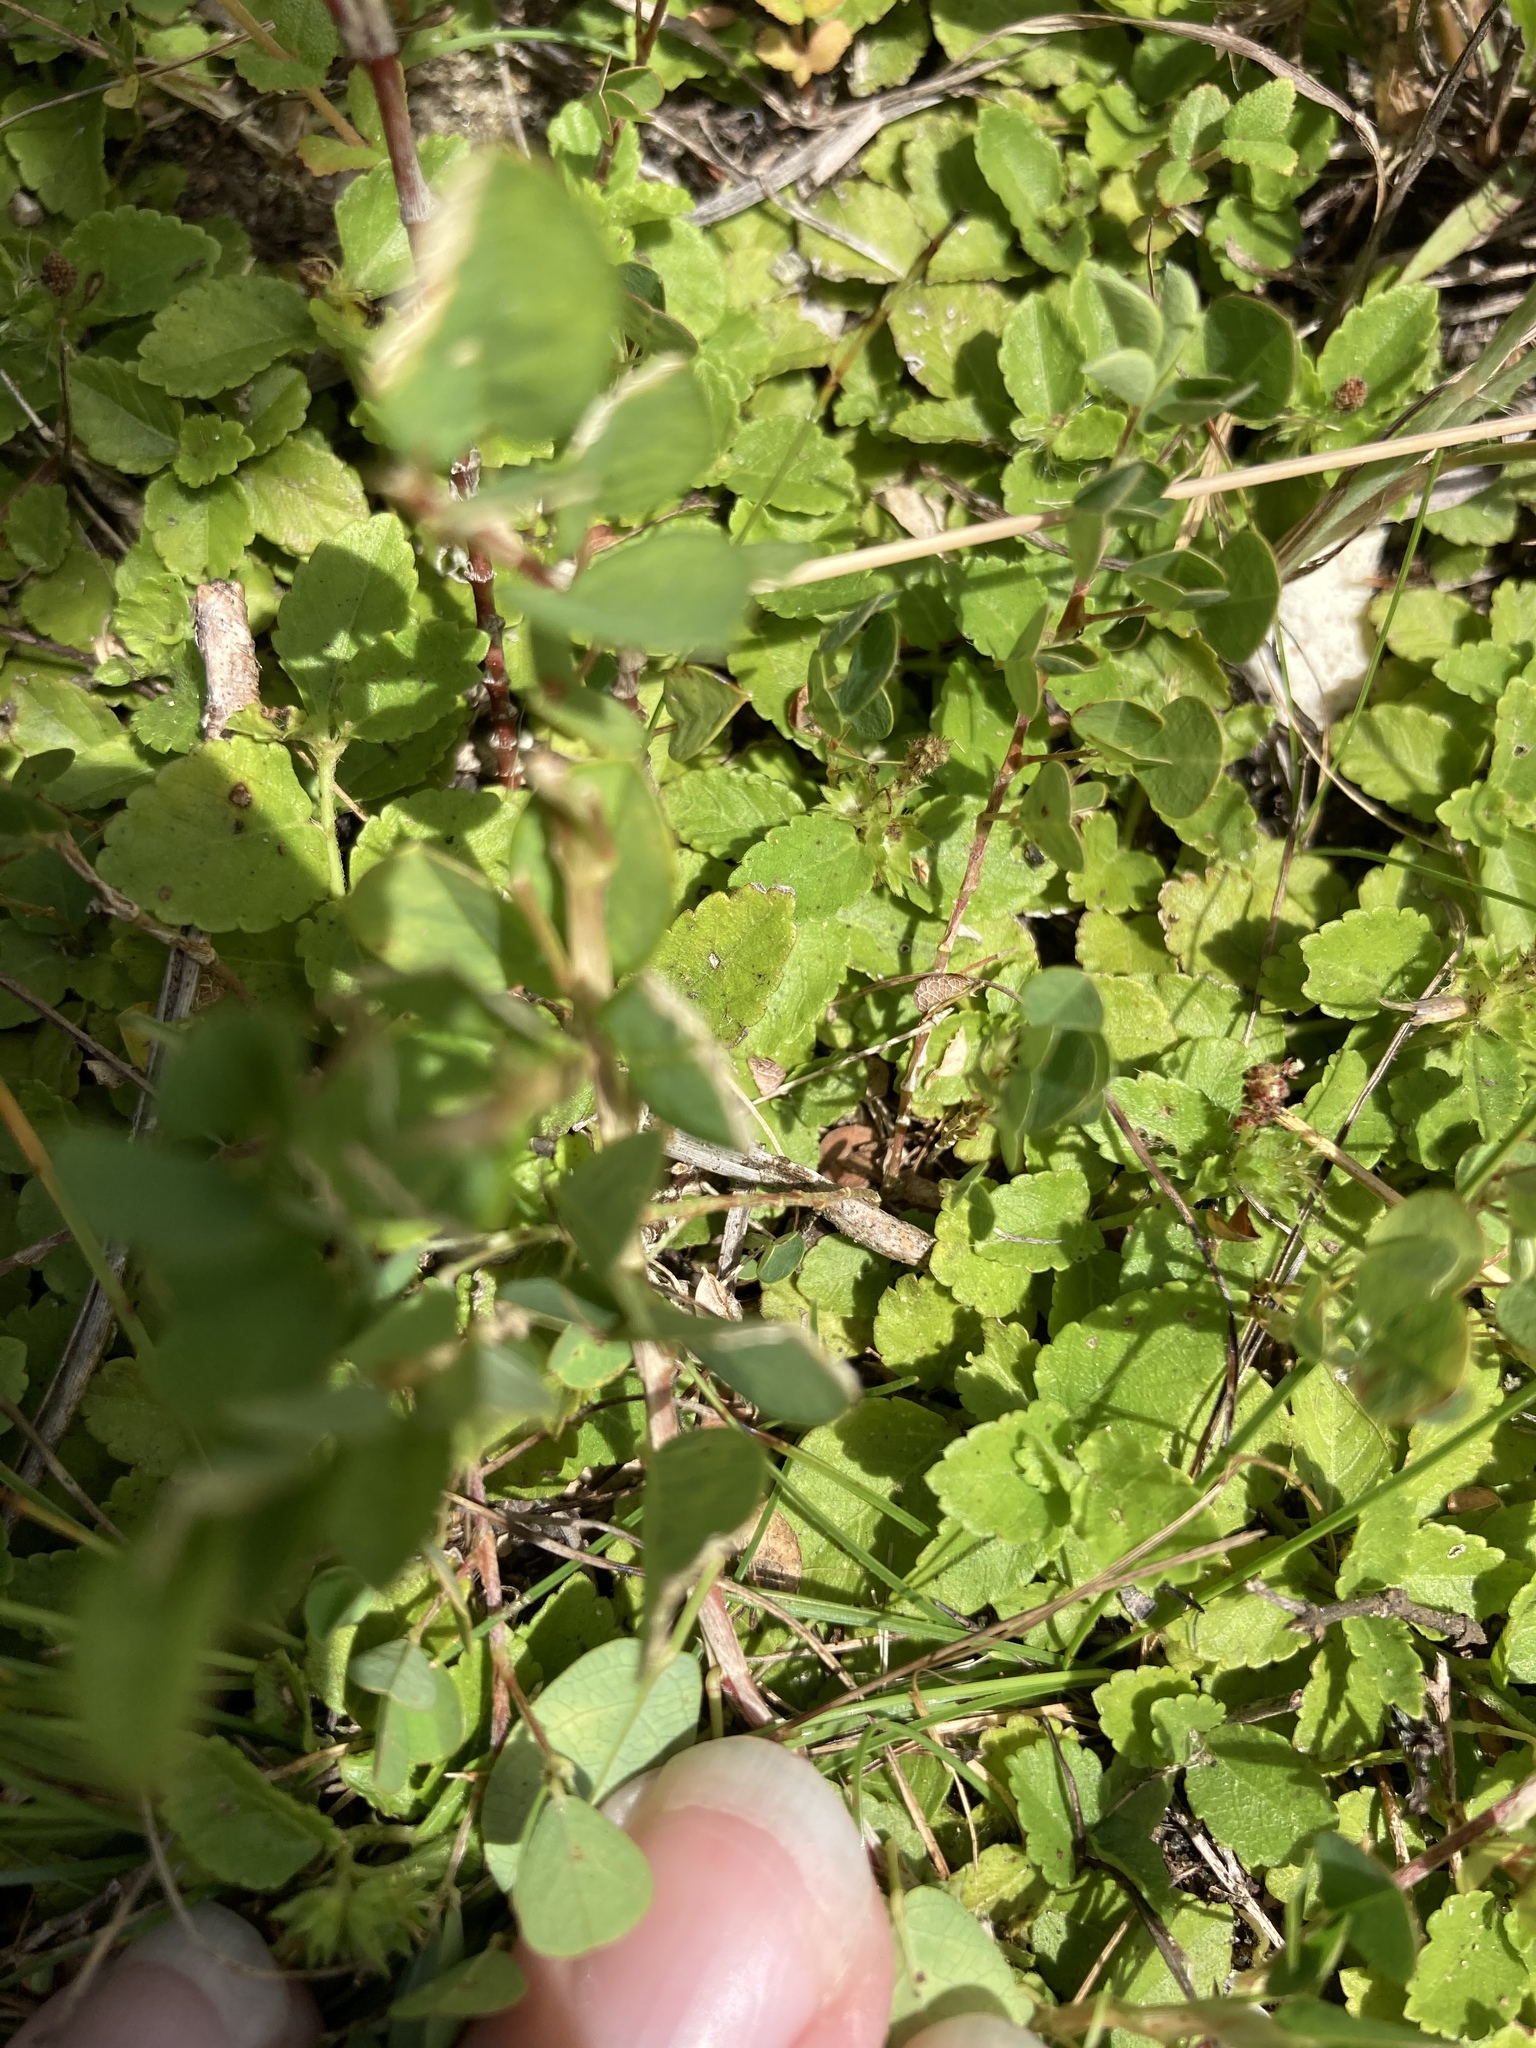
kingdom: Plantae
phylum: Tracheophyta
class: Magnoliopsida
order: Malpighiales
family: Euphorbiaceae
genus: Acalypha
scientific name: Acalypha chamaedrifolia
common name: Bastard copperleaf
